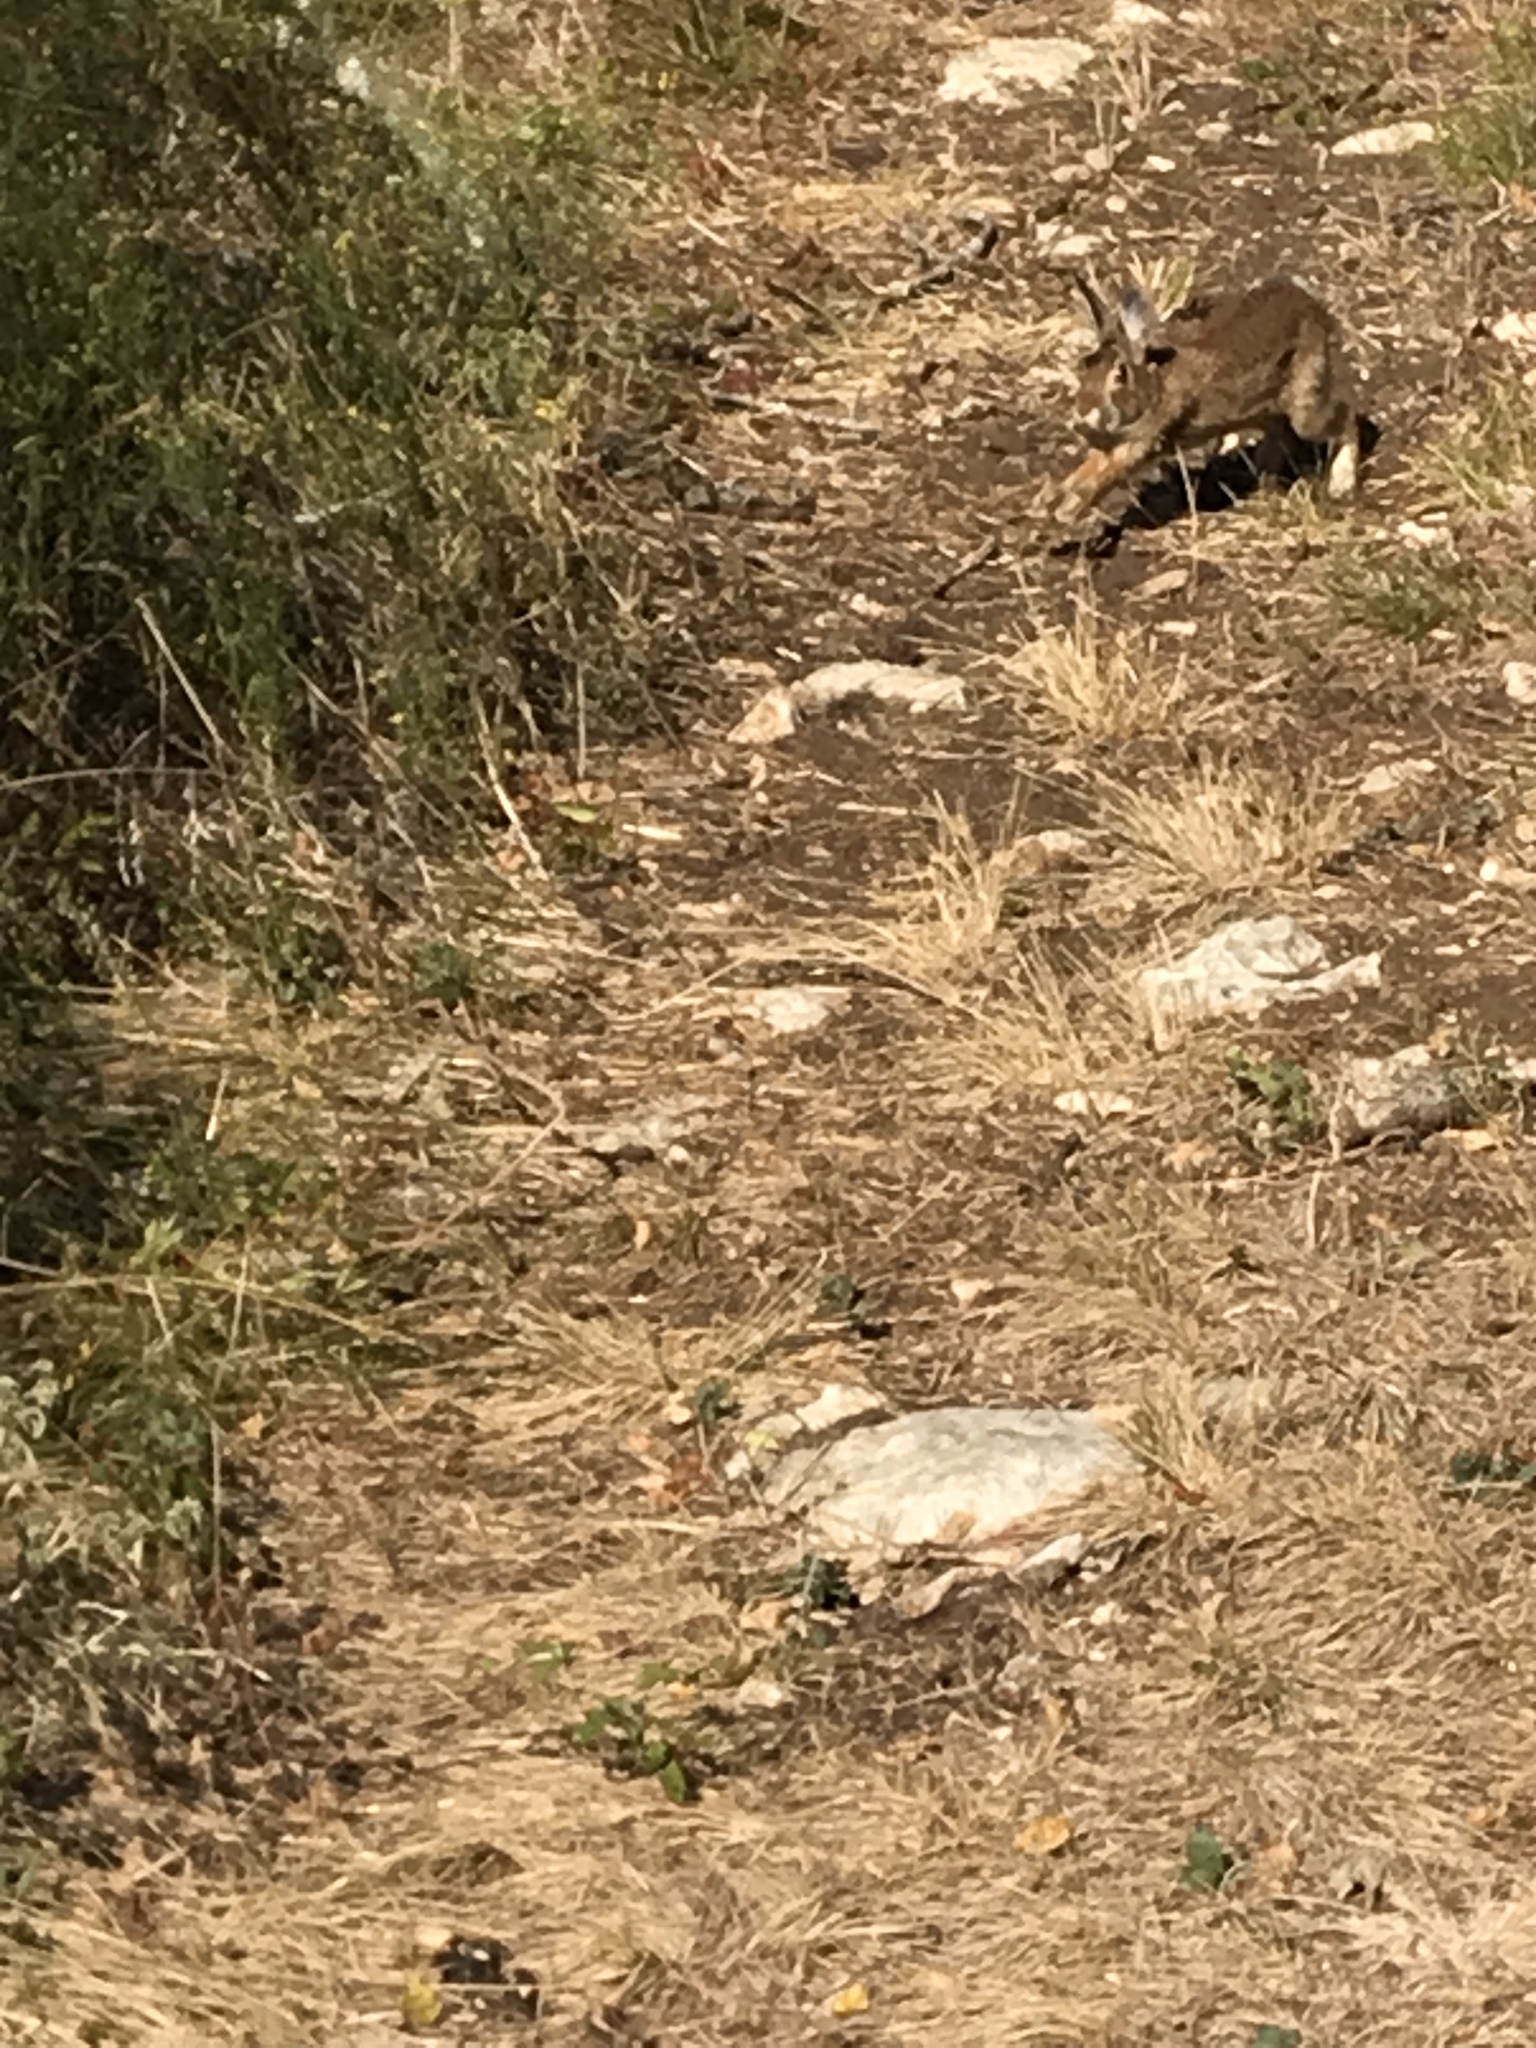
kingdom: Animalia
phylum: Chordata
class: Mammalia
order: Lagomorpha
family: Leporidae
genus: Sylvilagus
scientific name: Sylvilagus floridanus
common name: Eastern cottontail
